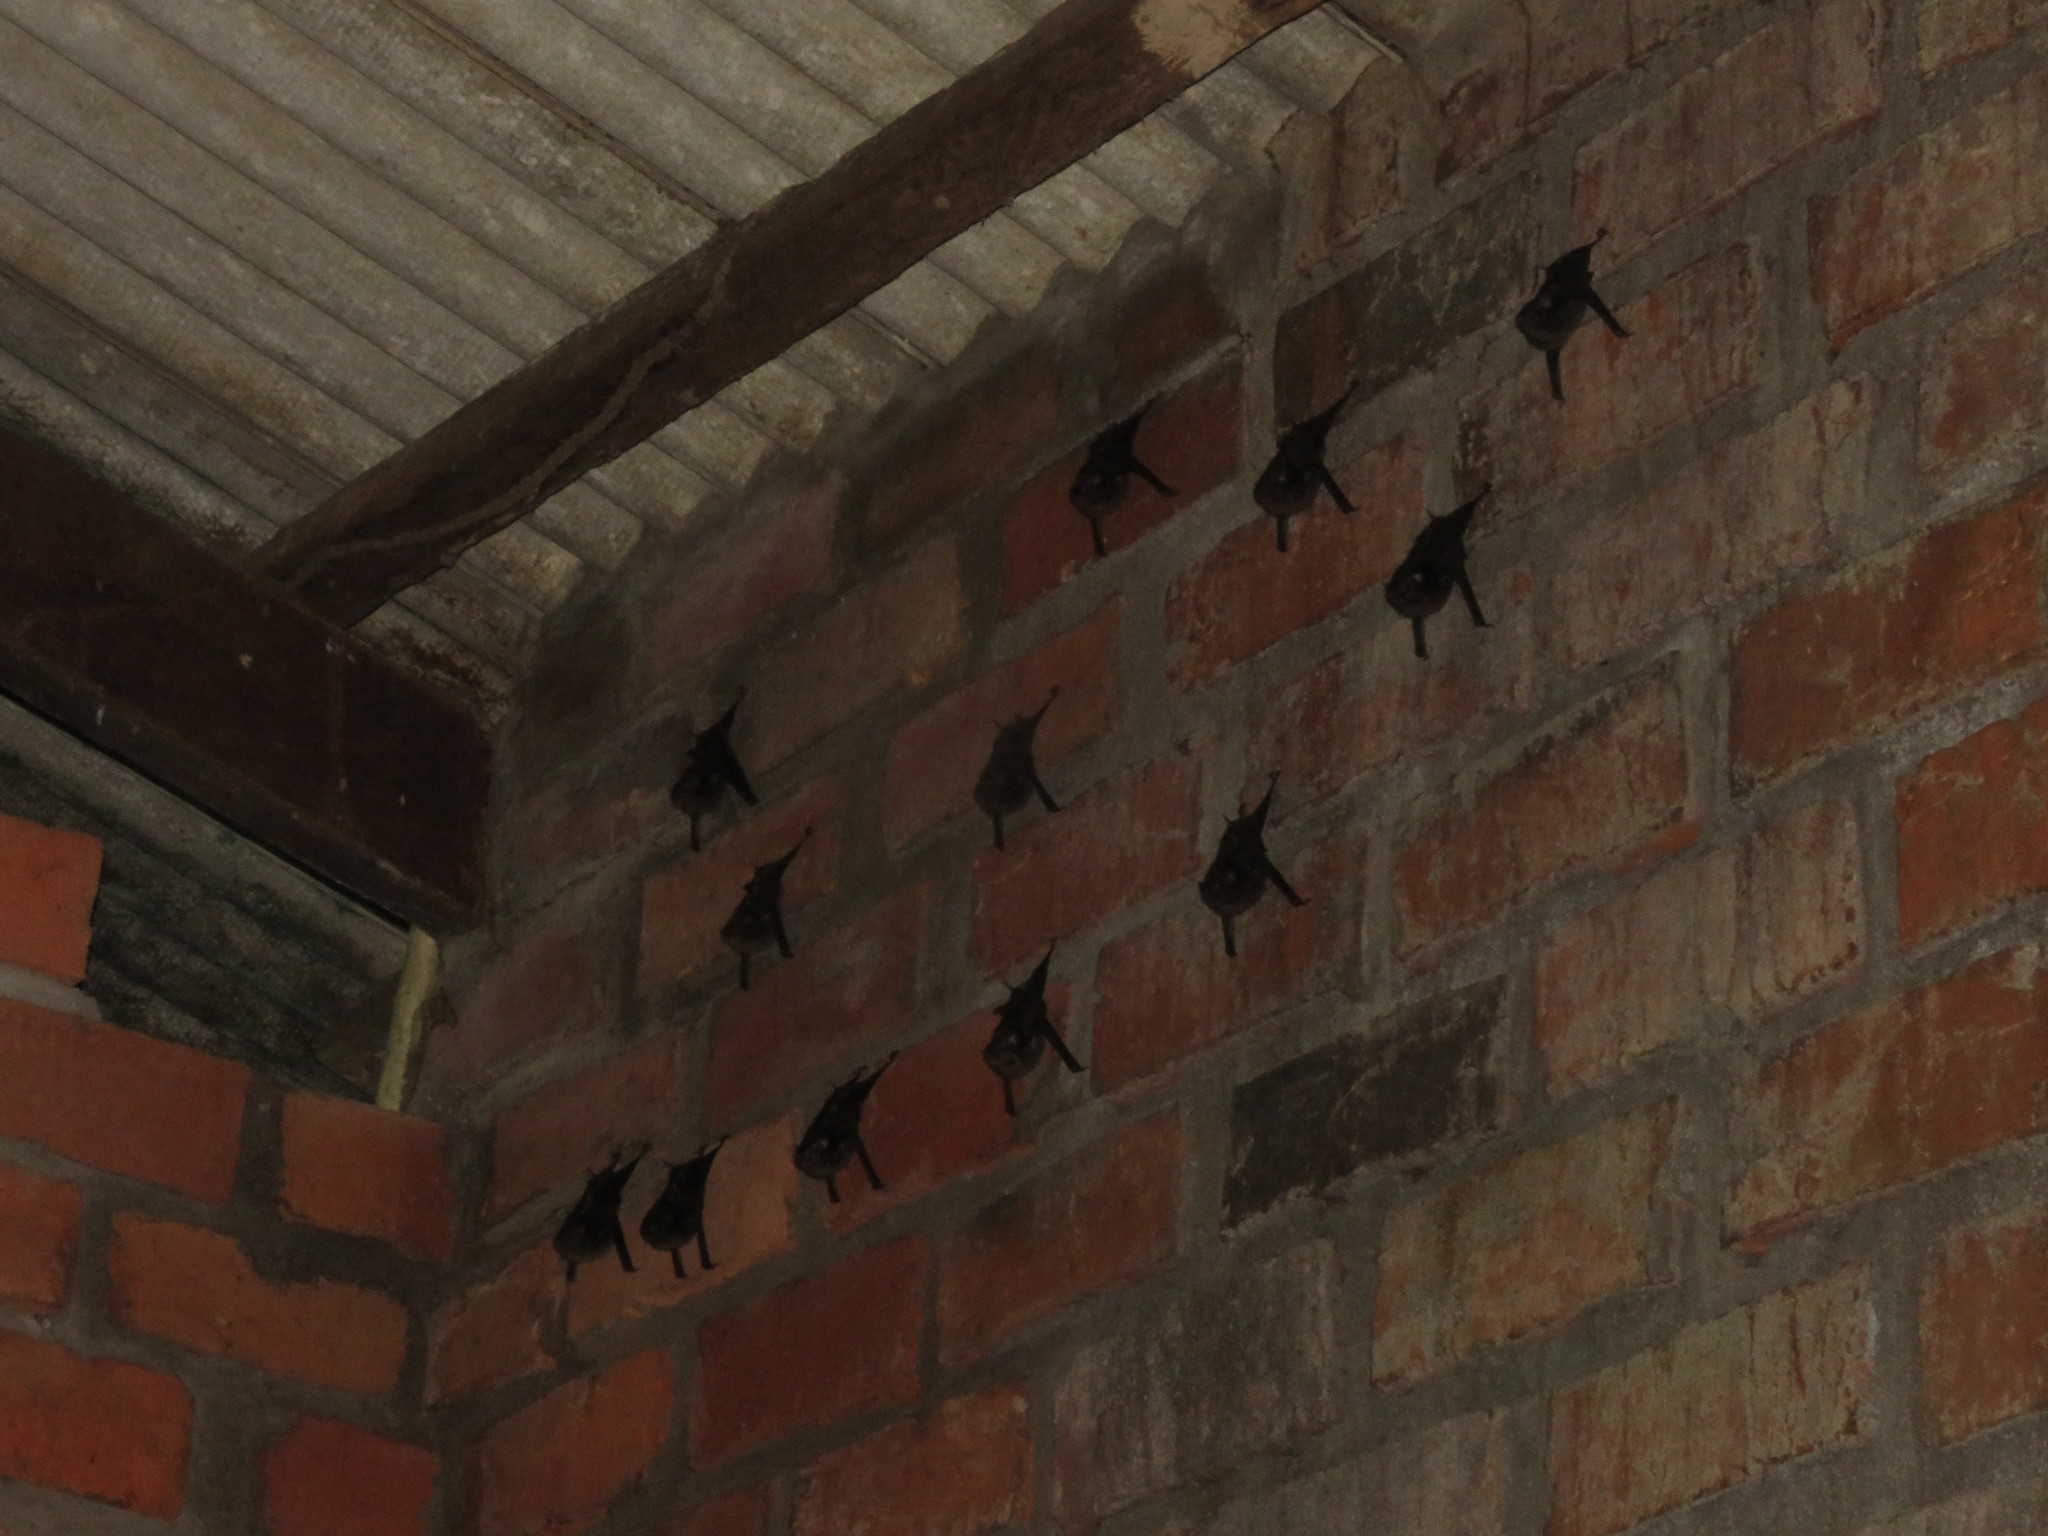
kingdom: Animalia
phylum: Chordata
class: Mammalia
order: Chiroptera
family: Emballonuridae
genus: Saccopteryx
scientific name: Saccopteryx bilineata
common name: Greater sac-winged bat
